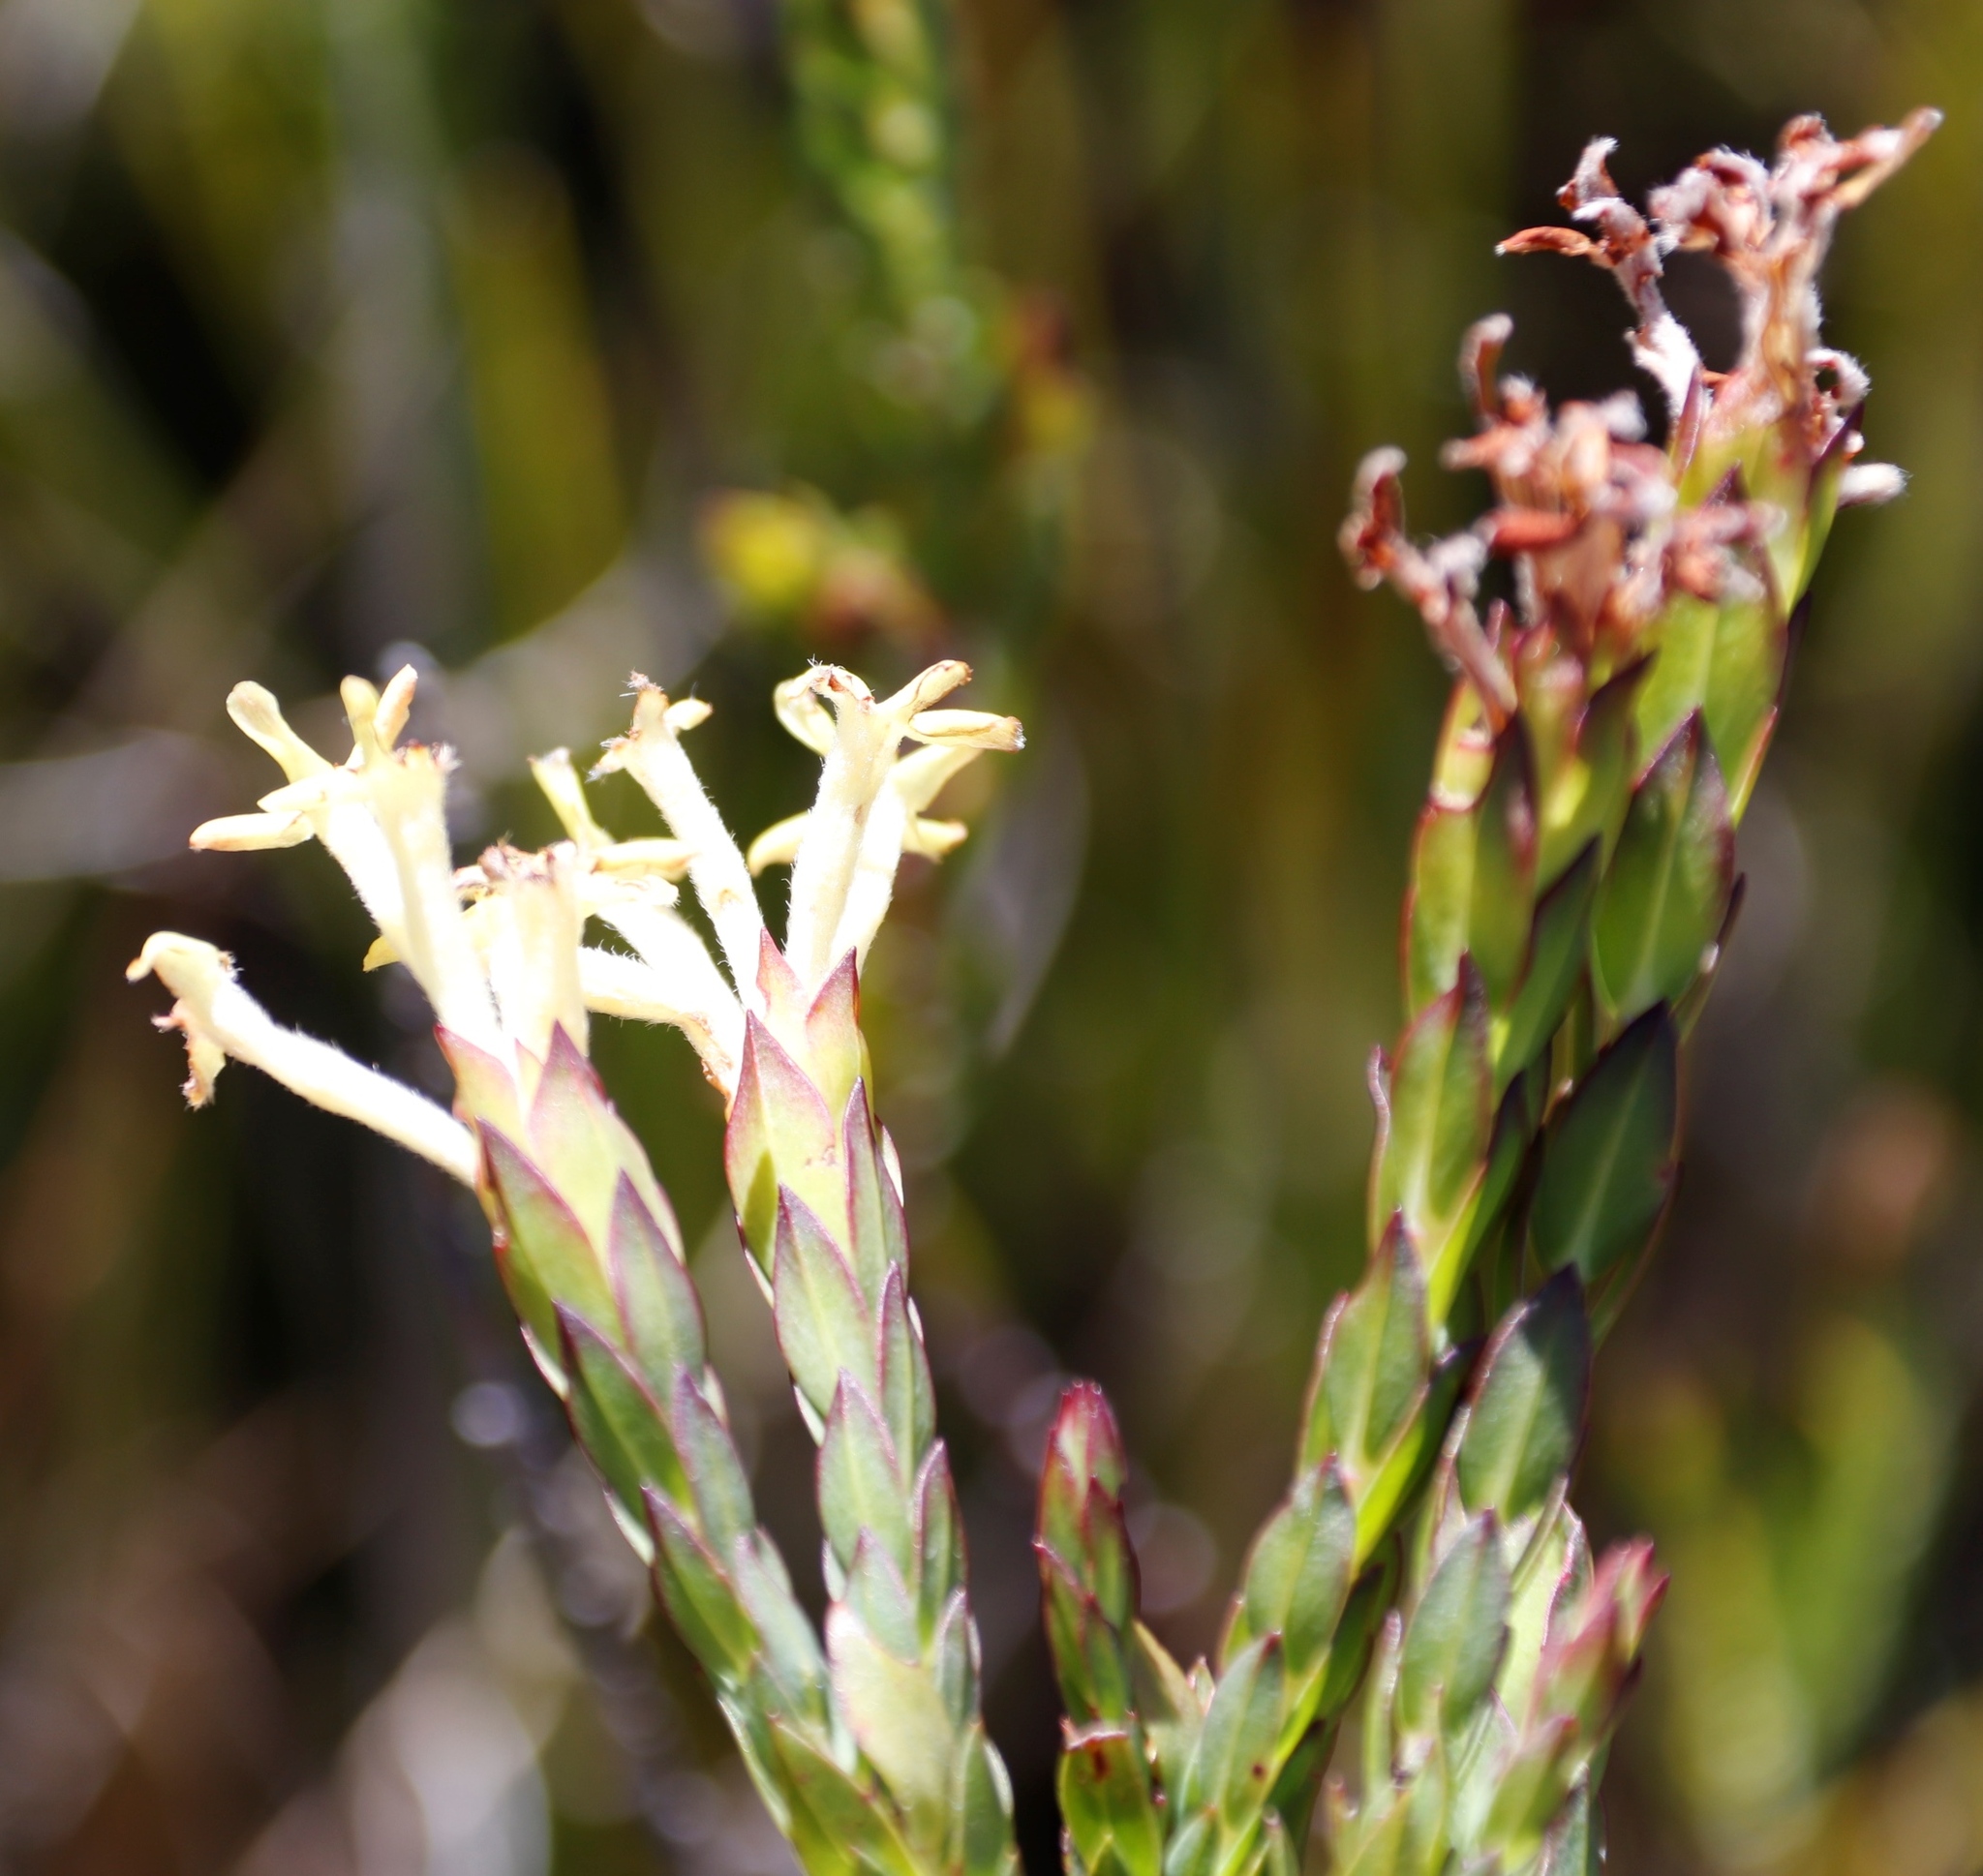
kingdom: Plantae
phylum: Tracheophyta
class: Magnoliopsida
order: Malvales
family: Thymelaeaceae
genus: Gnidia
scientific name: Gnidia oppositifolia
